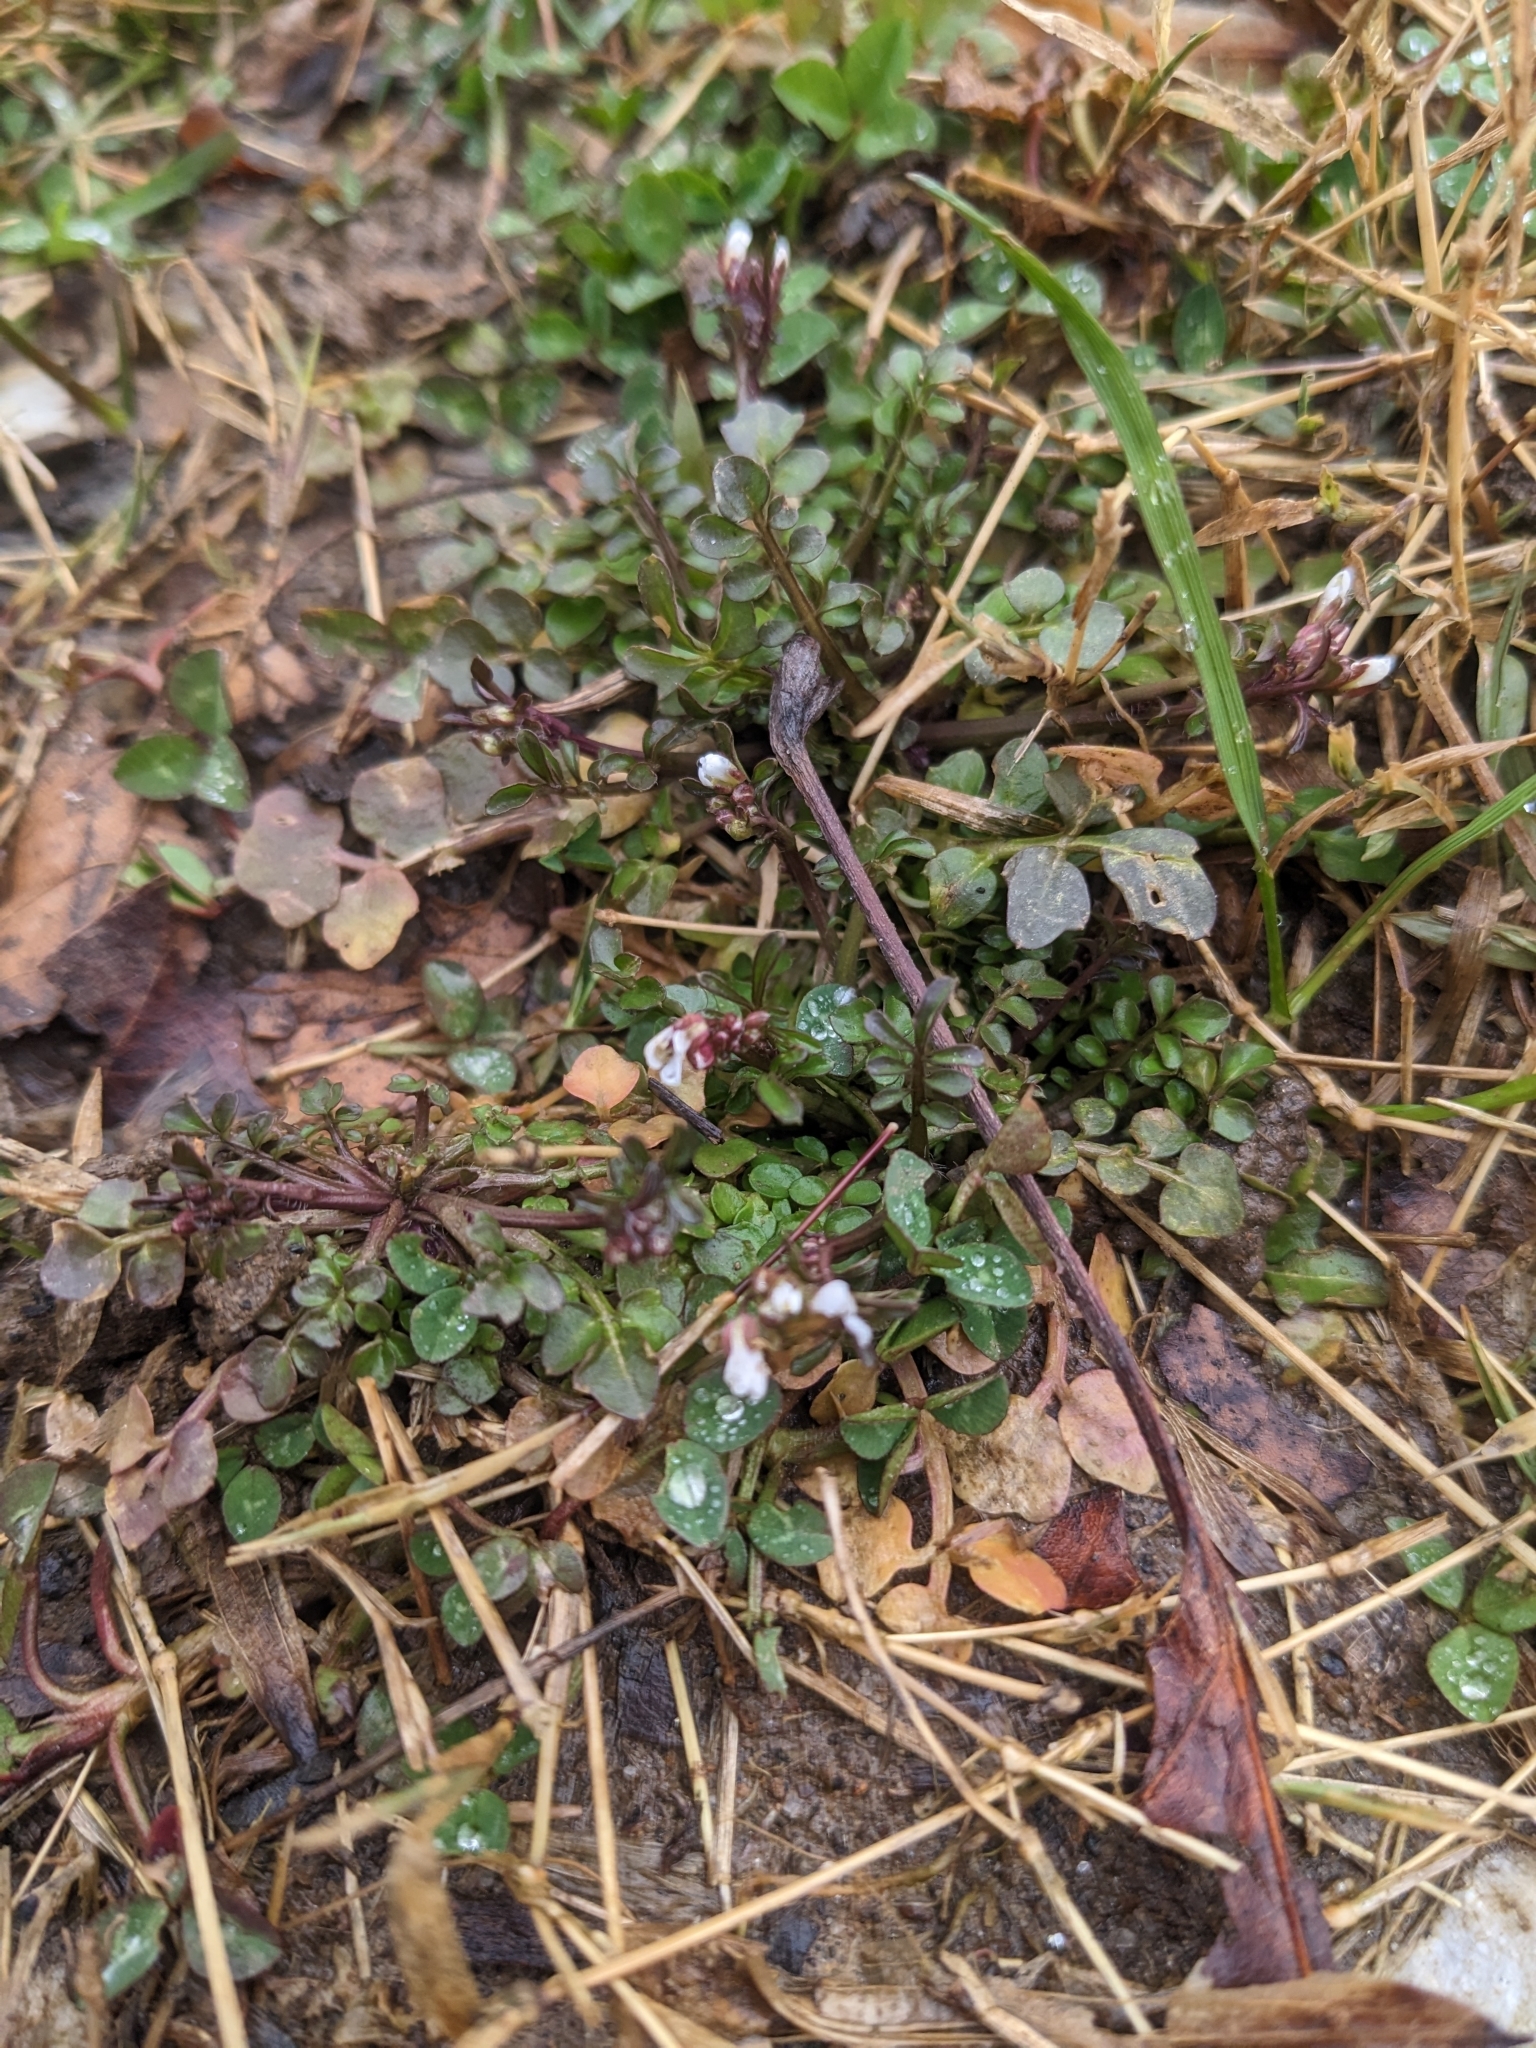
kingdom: Plantae
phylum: Tracheophyta
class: Magnoliopsida
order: Brassicales
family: Brassicaceae
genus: Cardamine
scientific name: Cardamine hirsuta
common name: Hairy bittercress
